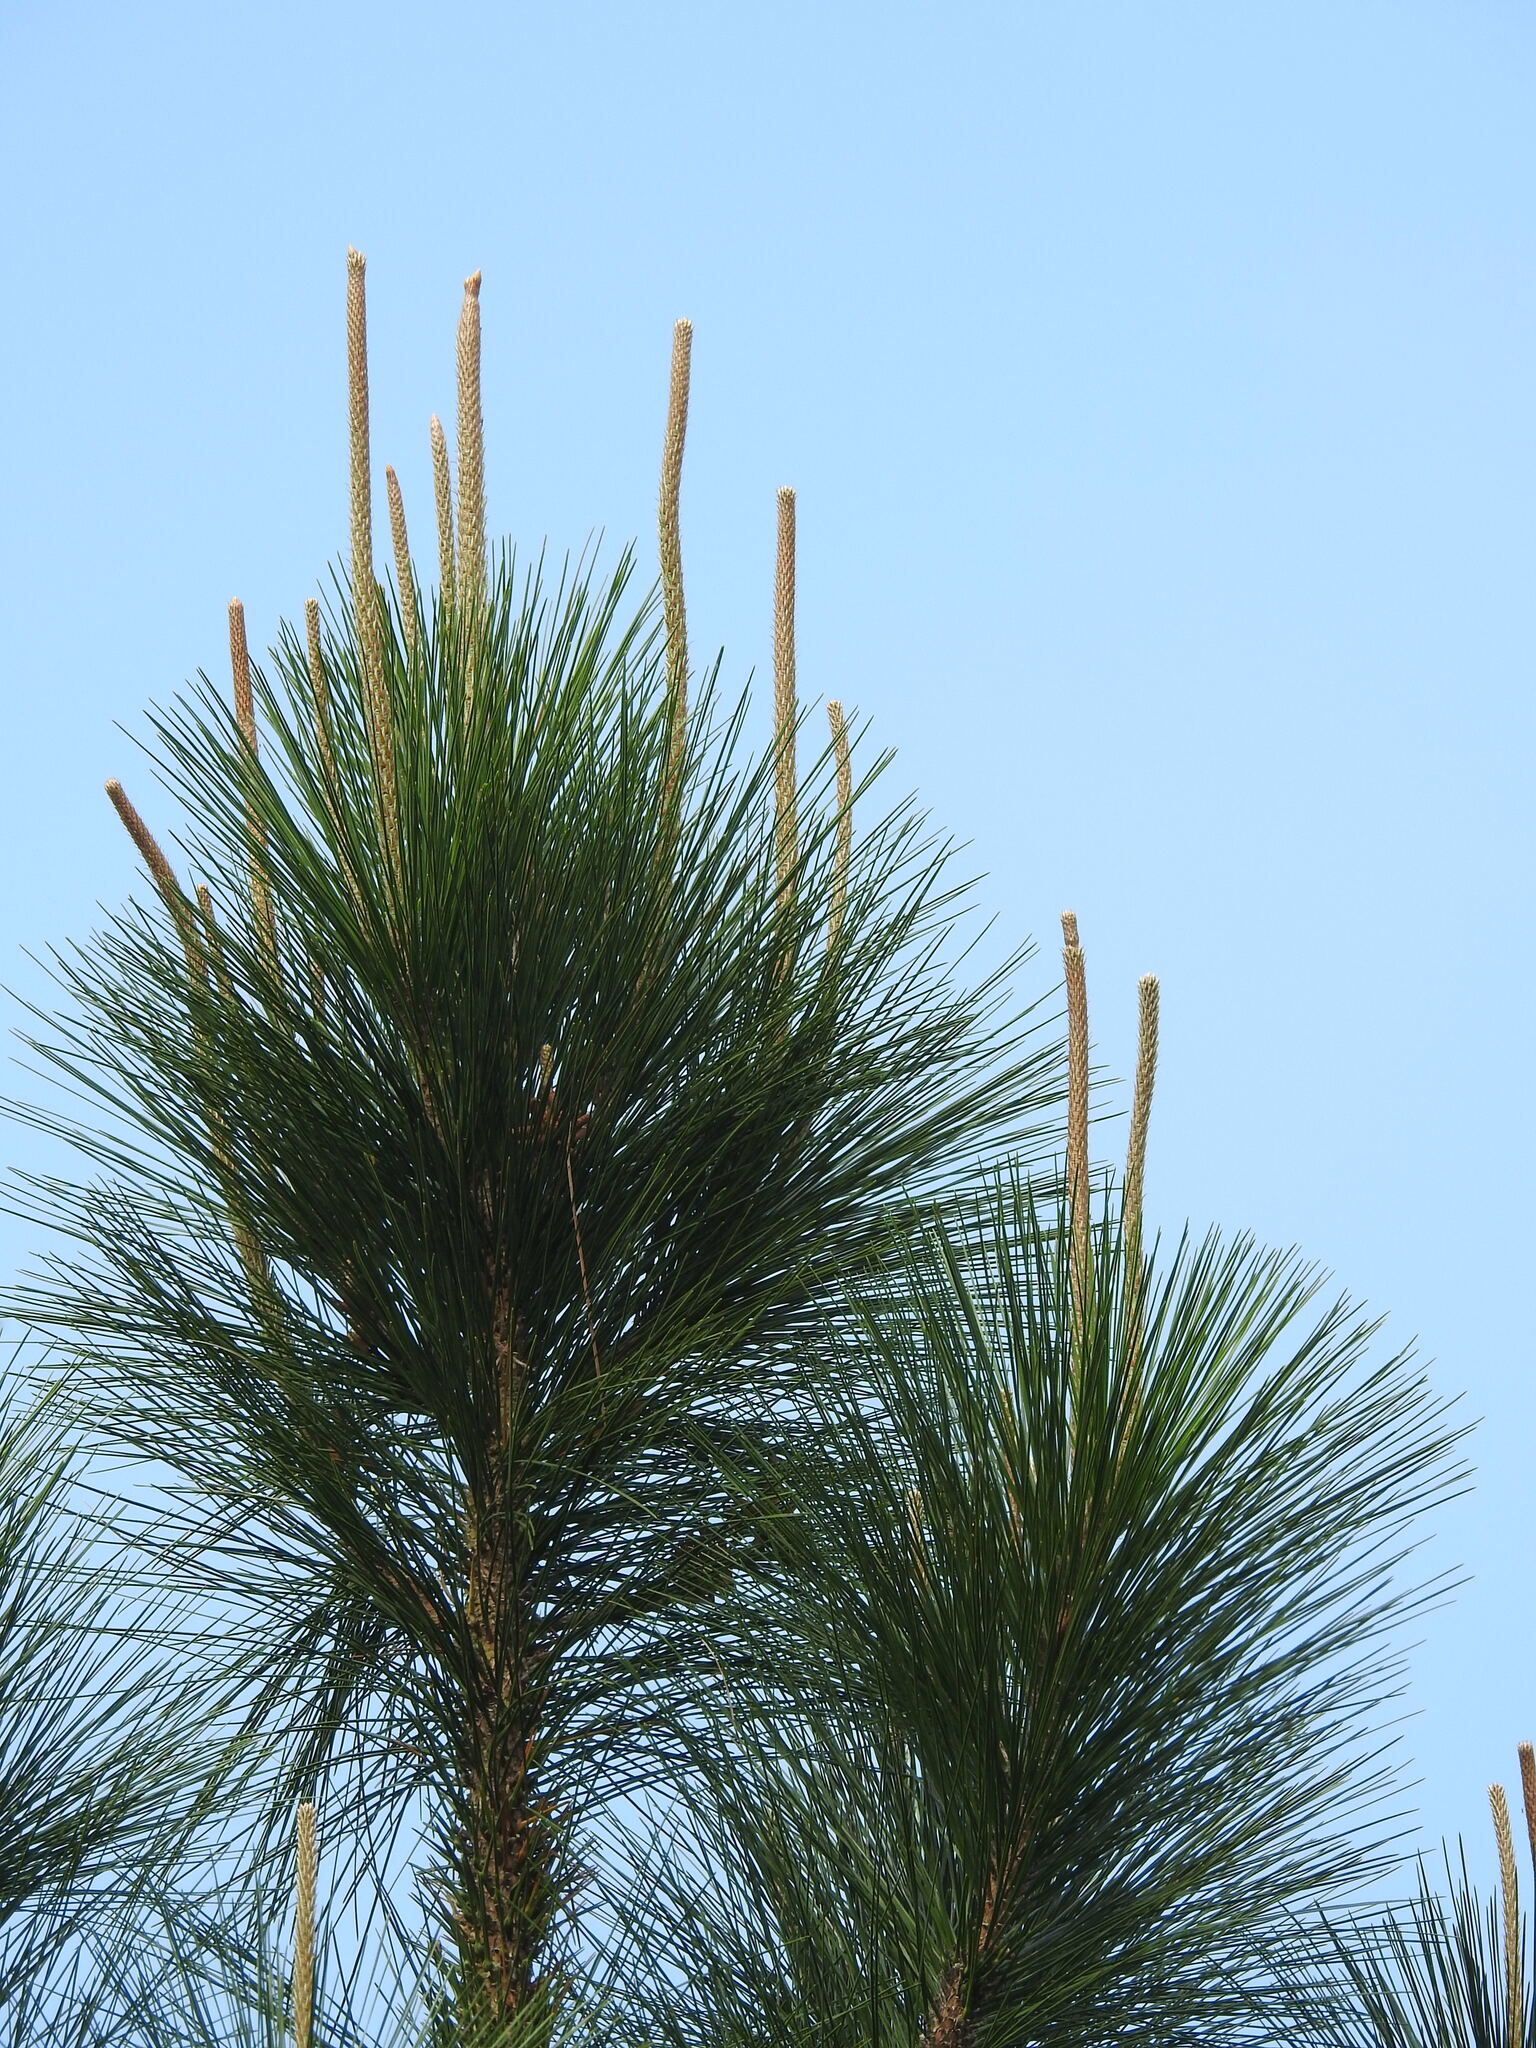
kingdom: Plantae
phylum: Tracheophyta
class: Pinopsida
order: Pinales
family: Pinaceae
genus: Pinus
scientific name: Pinus elliottii
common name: Slash pine
